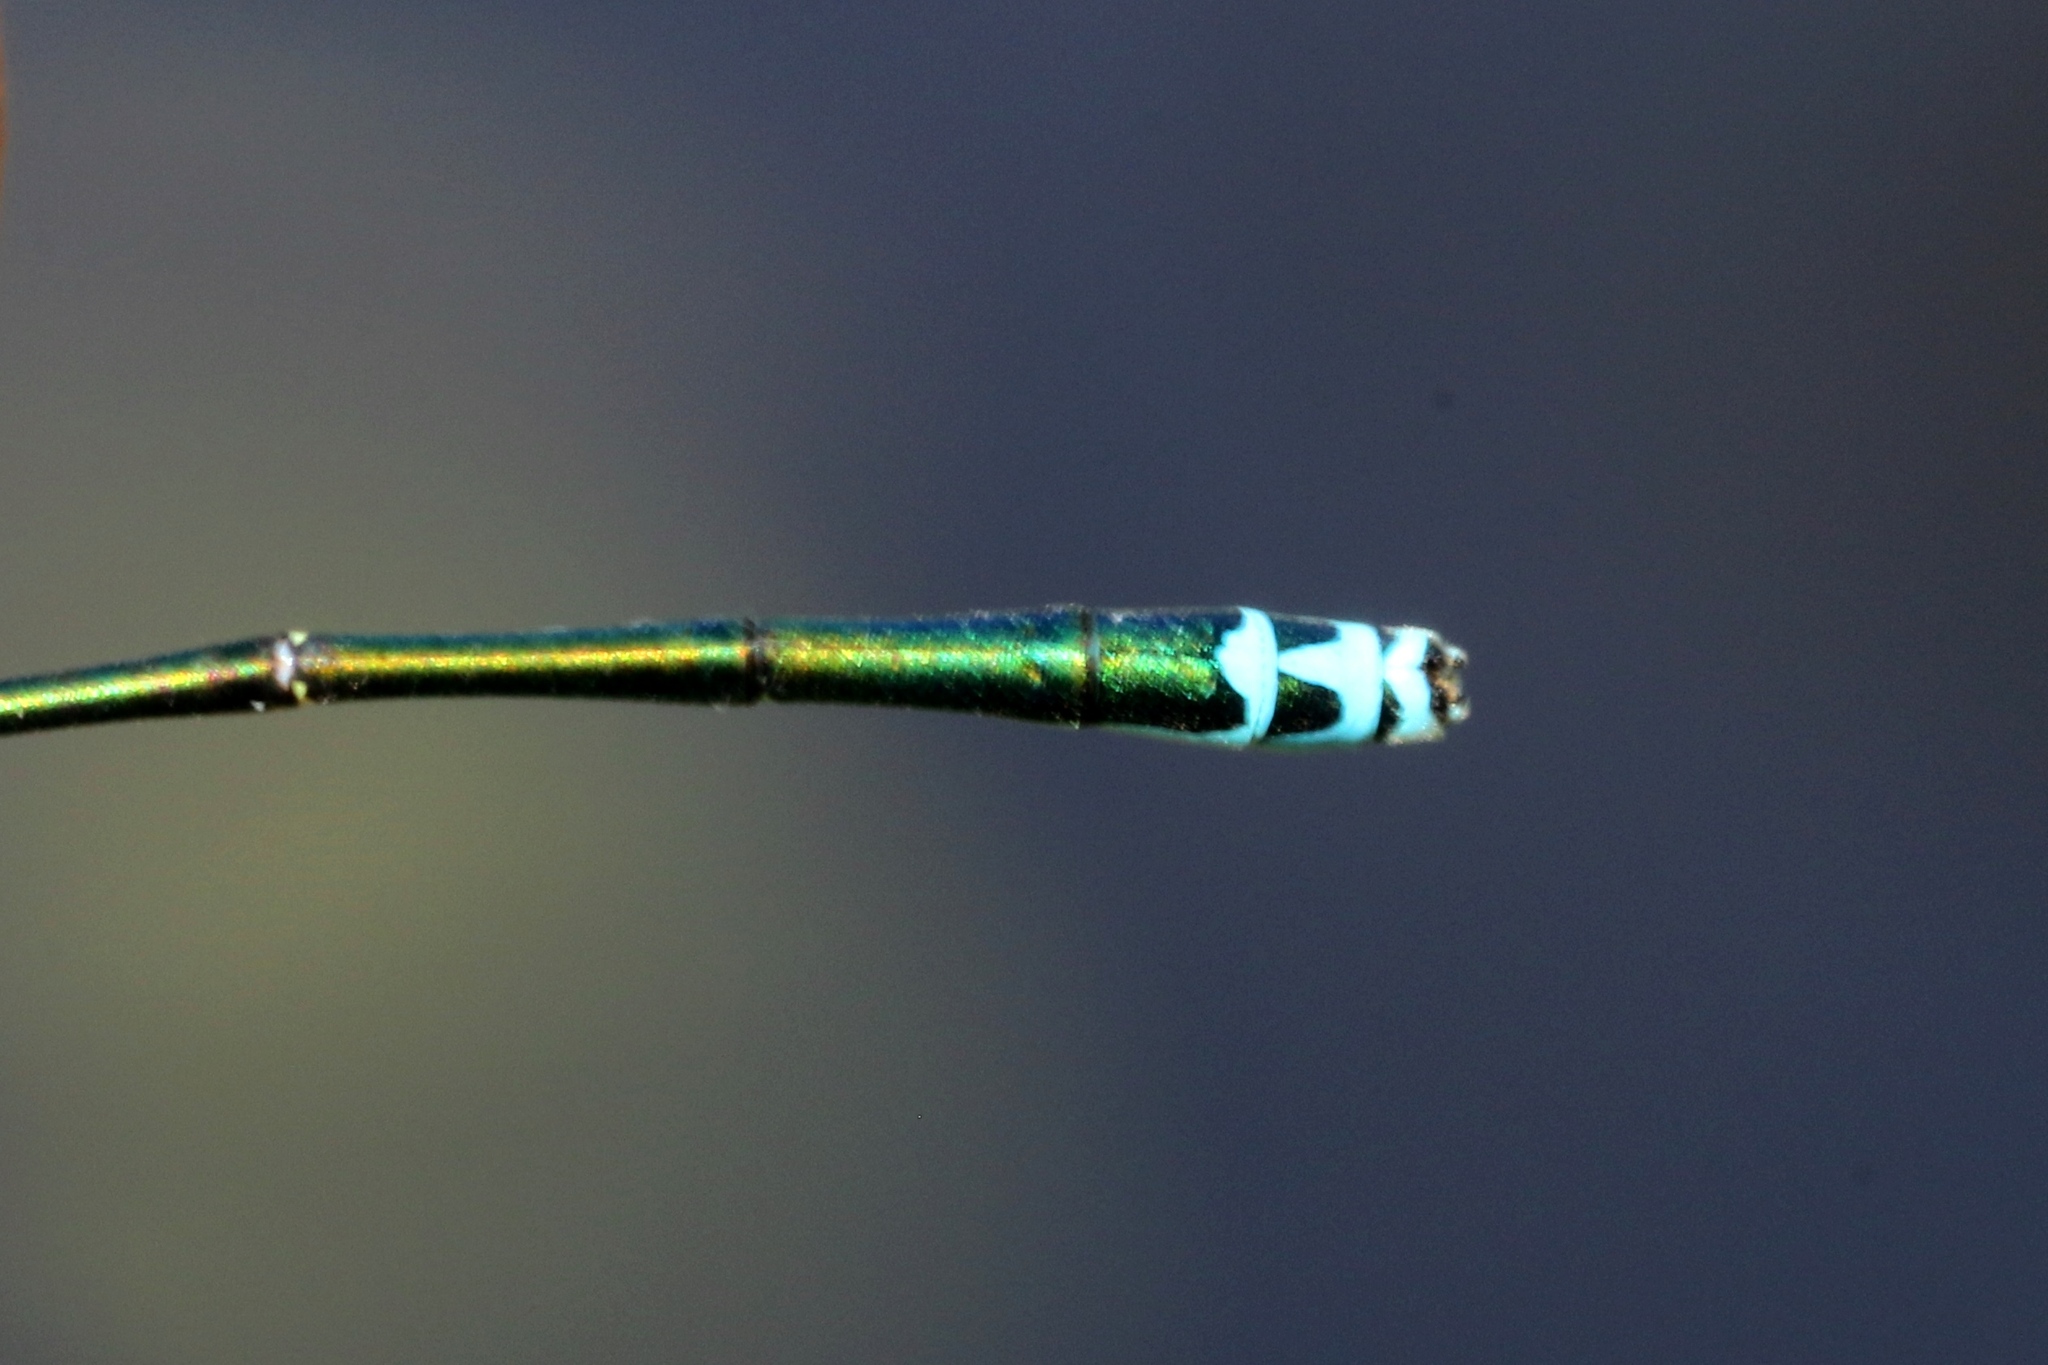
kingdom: Animalia
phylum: Arthropoda
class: Insecta
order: Odonata
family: Coenagrionidae
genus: Nehalennia
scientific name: Nehalennia irene
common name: Sedge sprite
